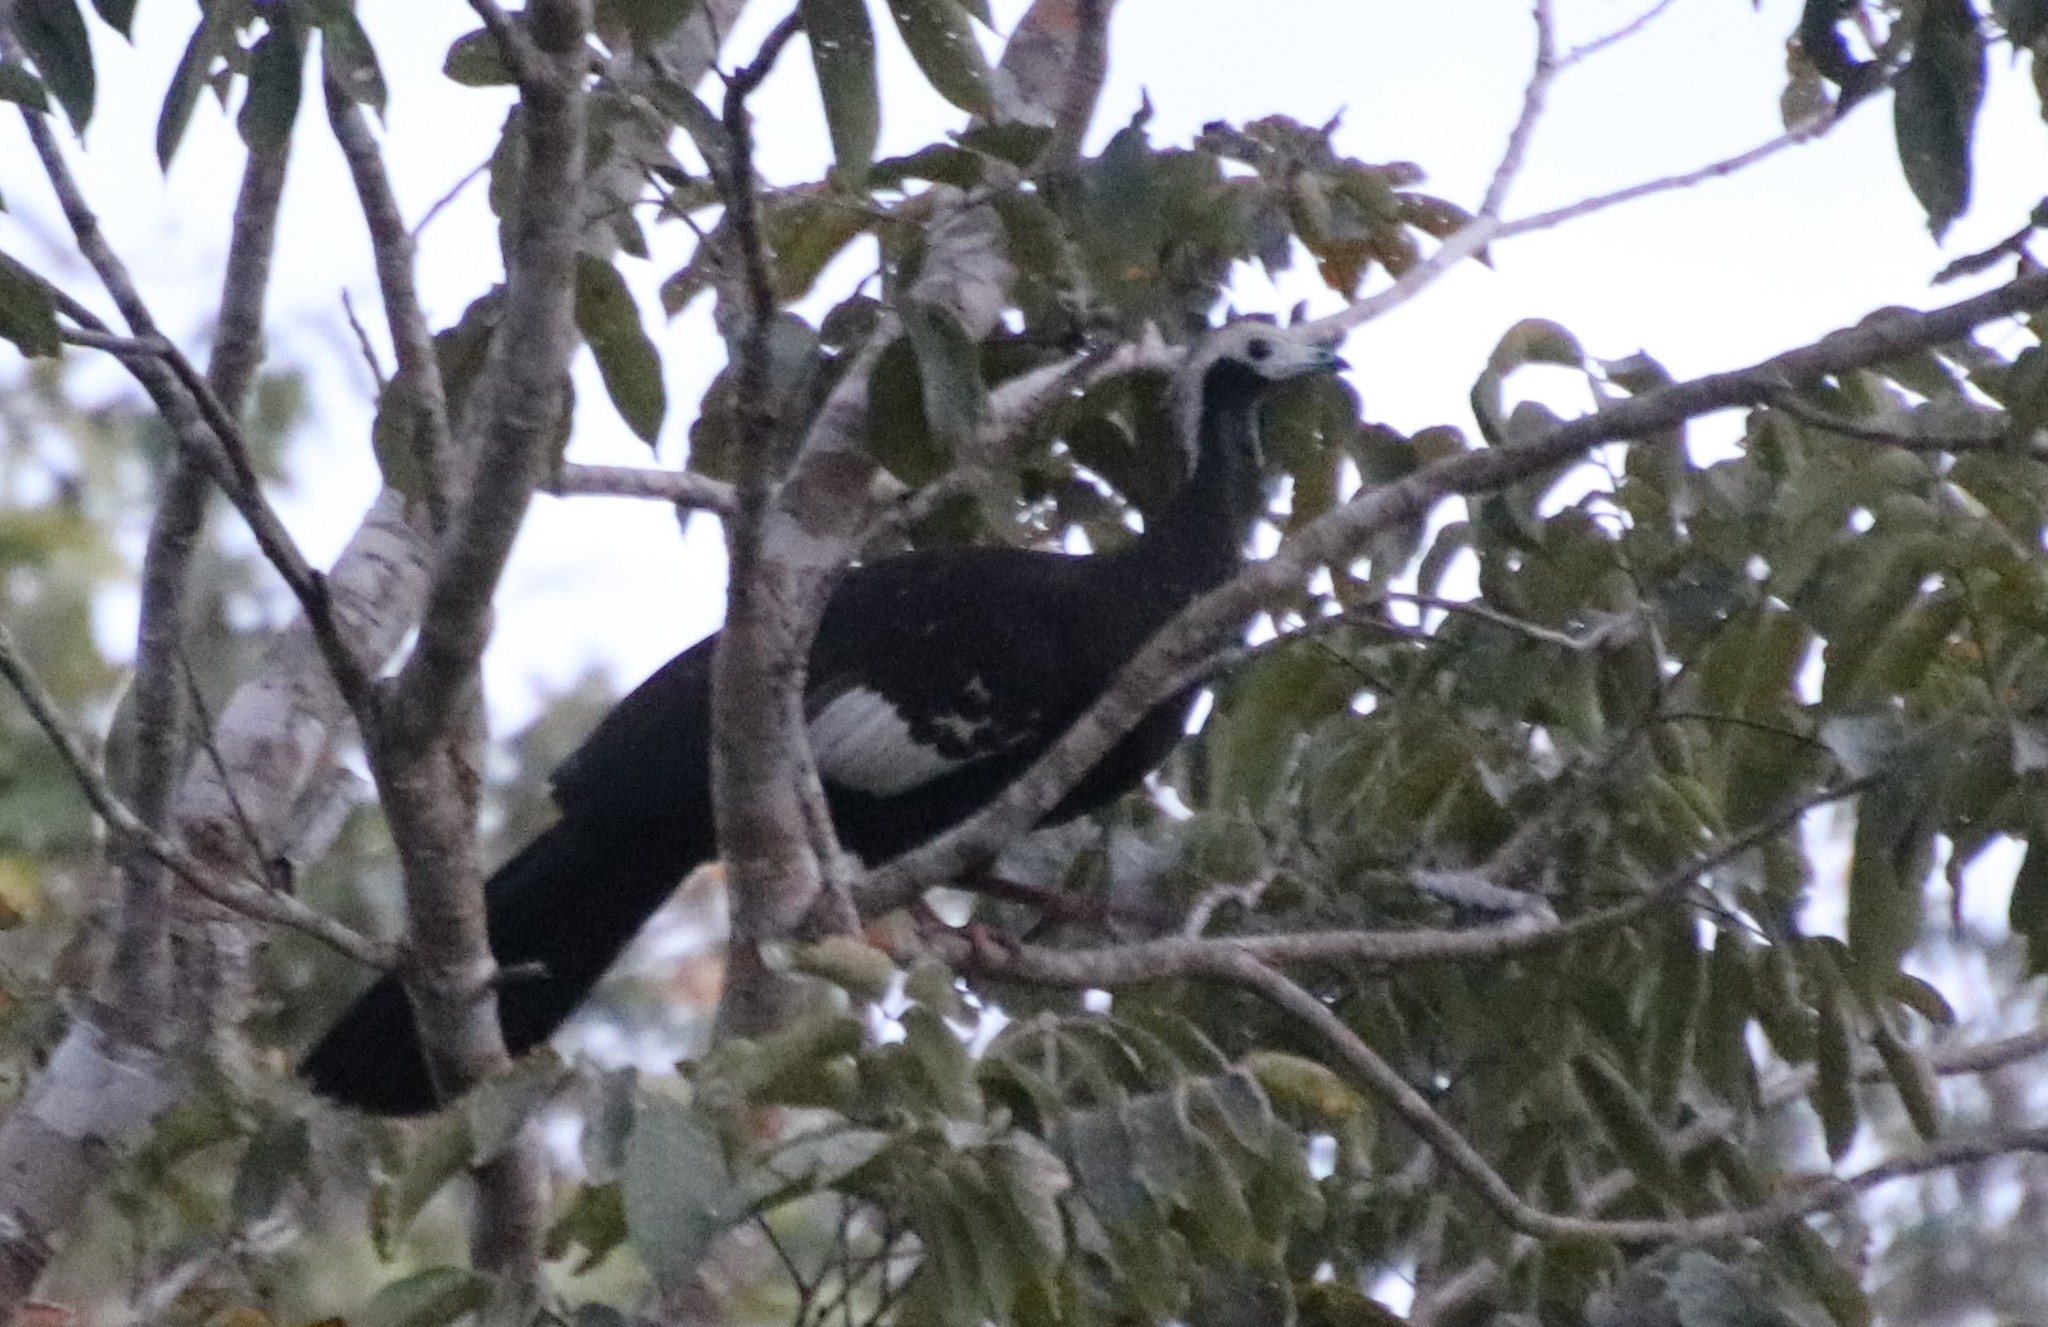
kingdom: Animalia
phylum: Chordata
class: Aves
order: Galliformes
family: Cracidae
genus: Pipile
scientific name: Pipile cumanensis
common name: Blue-throated piping-guan
